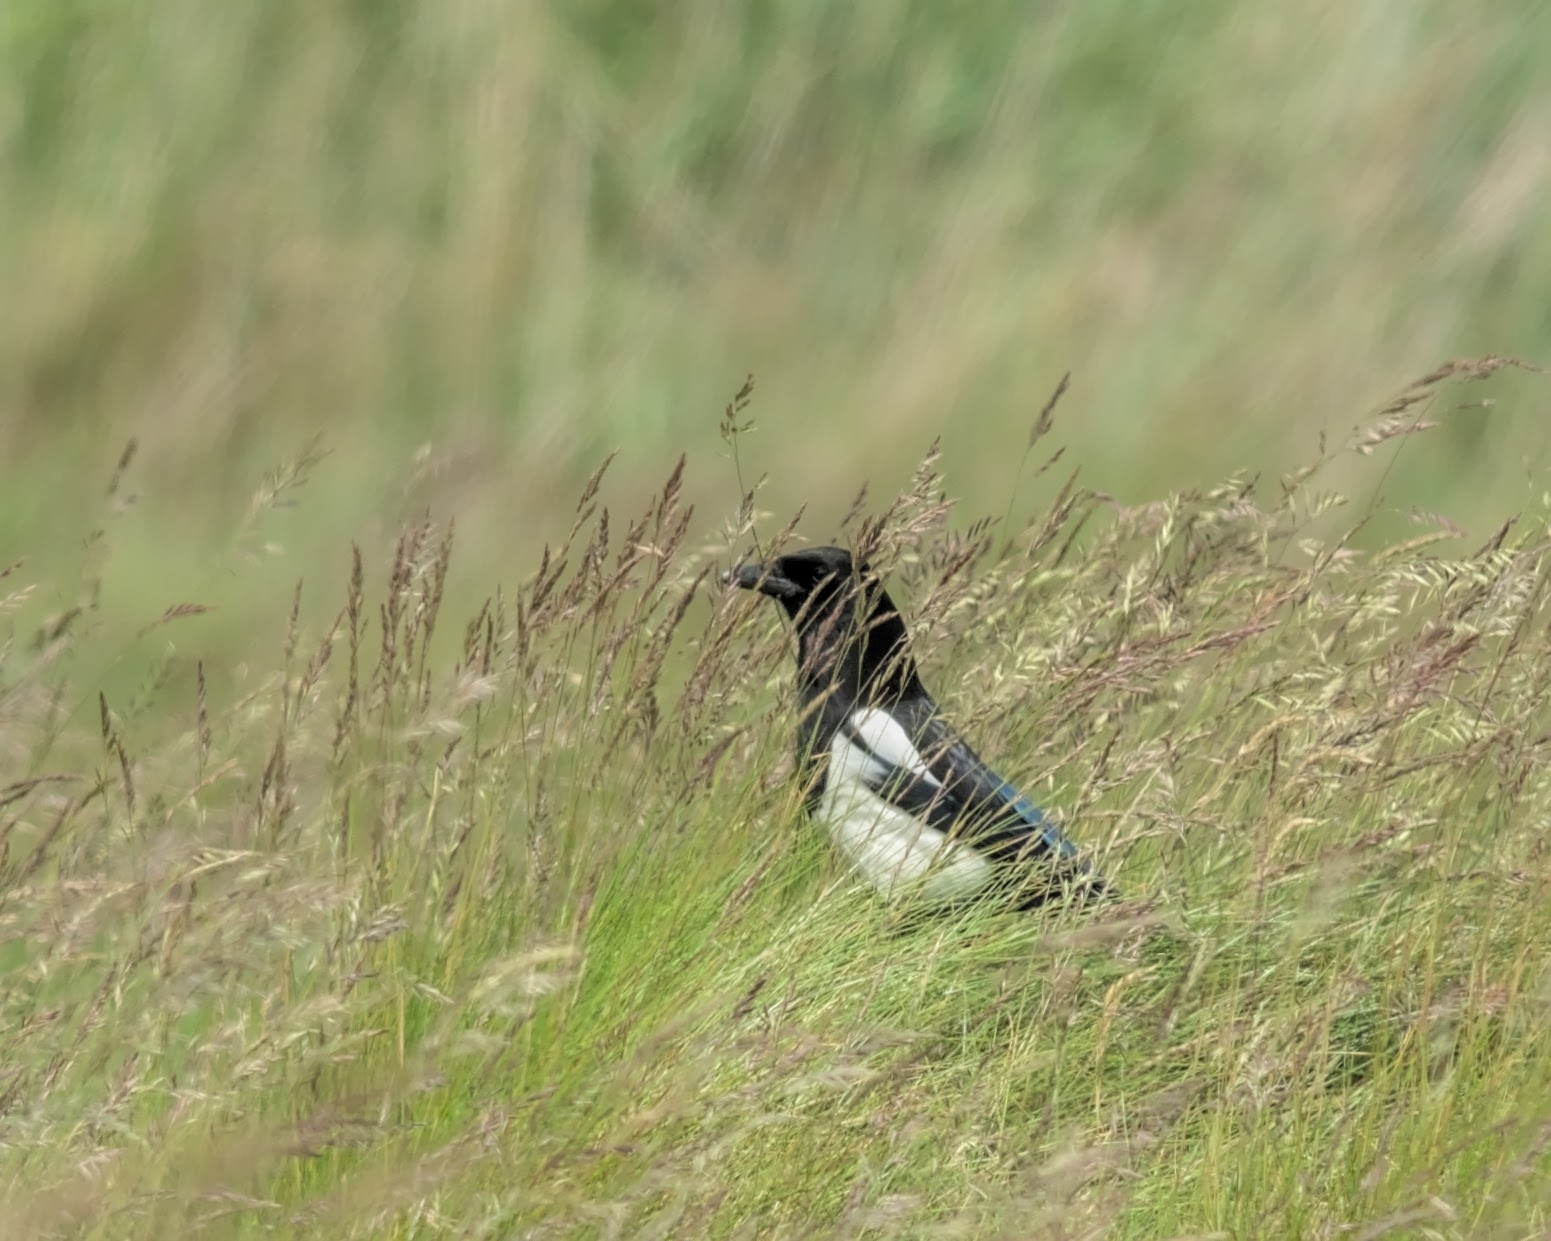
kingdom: Animalia
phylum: Chordata
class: Aves
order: Passeriformes
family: Corvidae
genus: Pica
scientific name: Pica pica
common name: Eurasian magpie
